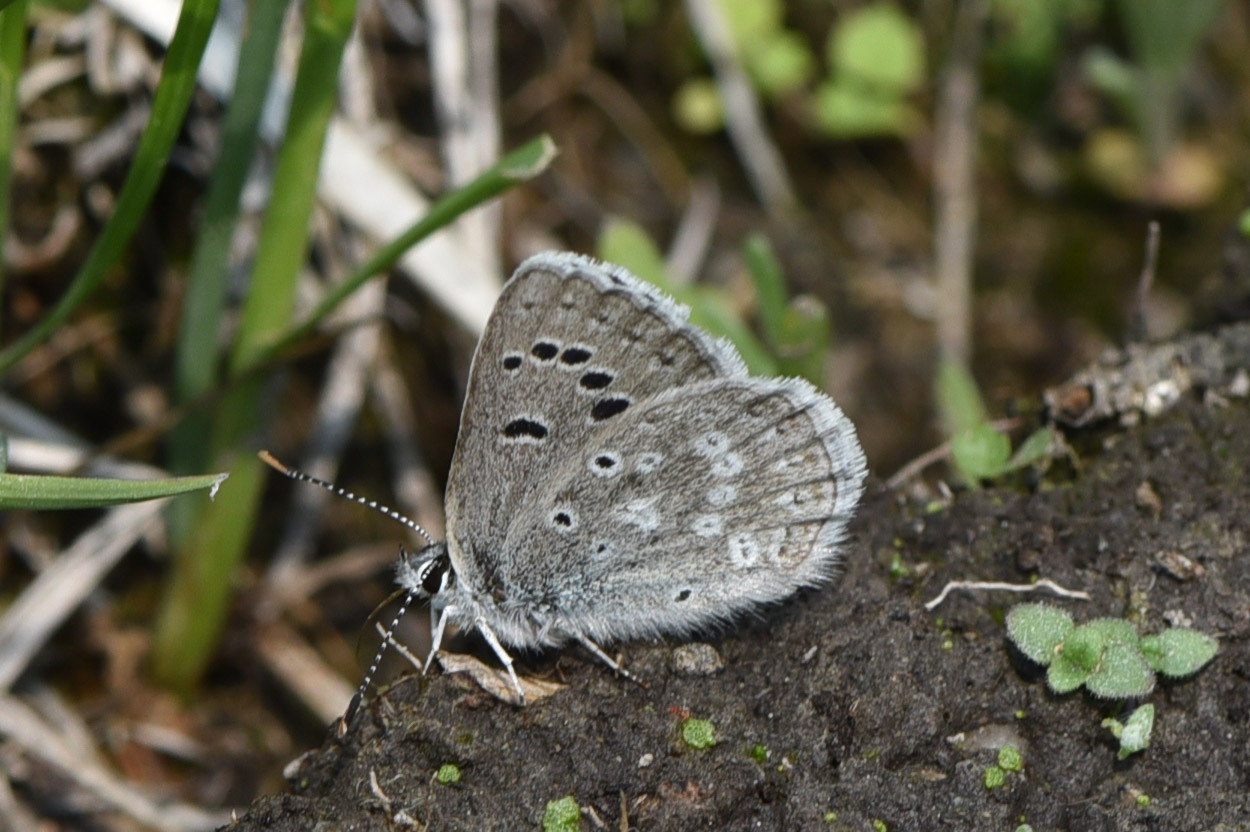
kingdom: Animalia
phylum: Arthropoda
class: Insecta
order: Lepidoptera
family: Lycaenidae
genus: Icaricia
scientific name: Icaricia icarioides
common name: Boisduval's blue
